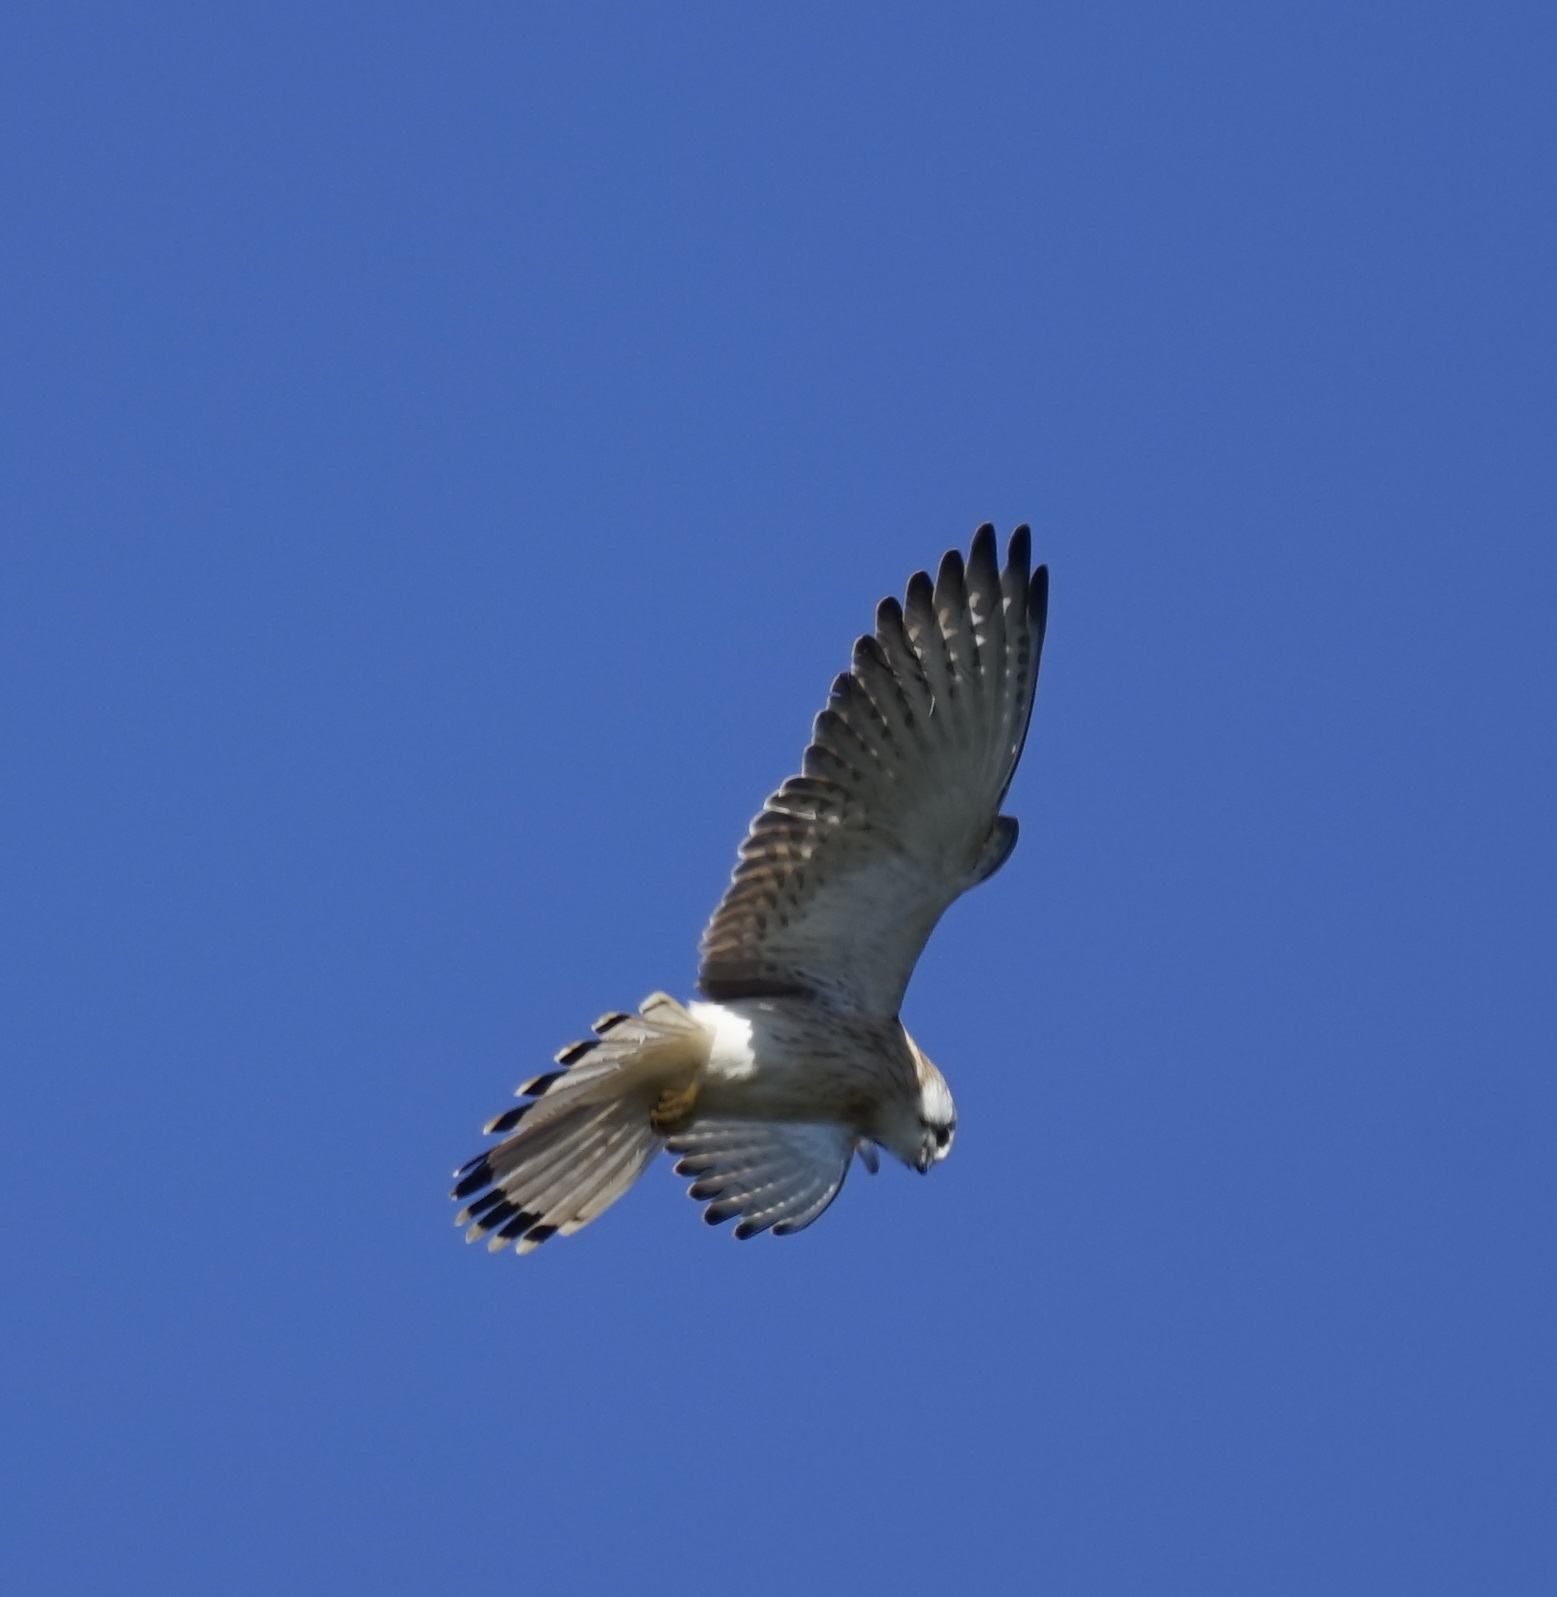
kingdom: Animalia
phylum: Chordata
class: Aves
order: Falconiformes
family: Falconidae
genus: Falco
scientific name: Falco cenchroides
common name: Nankeen kestrel
